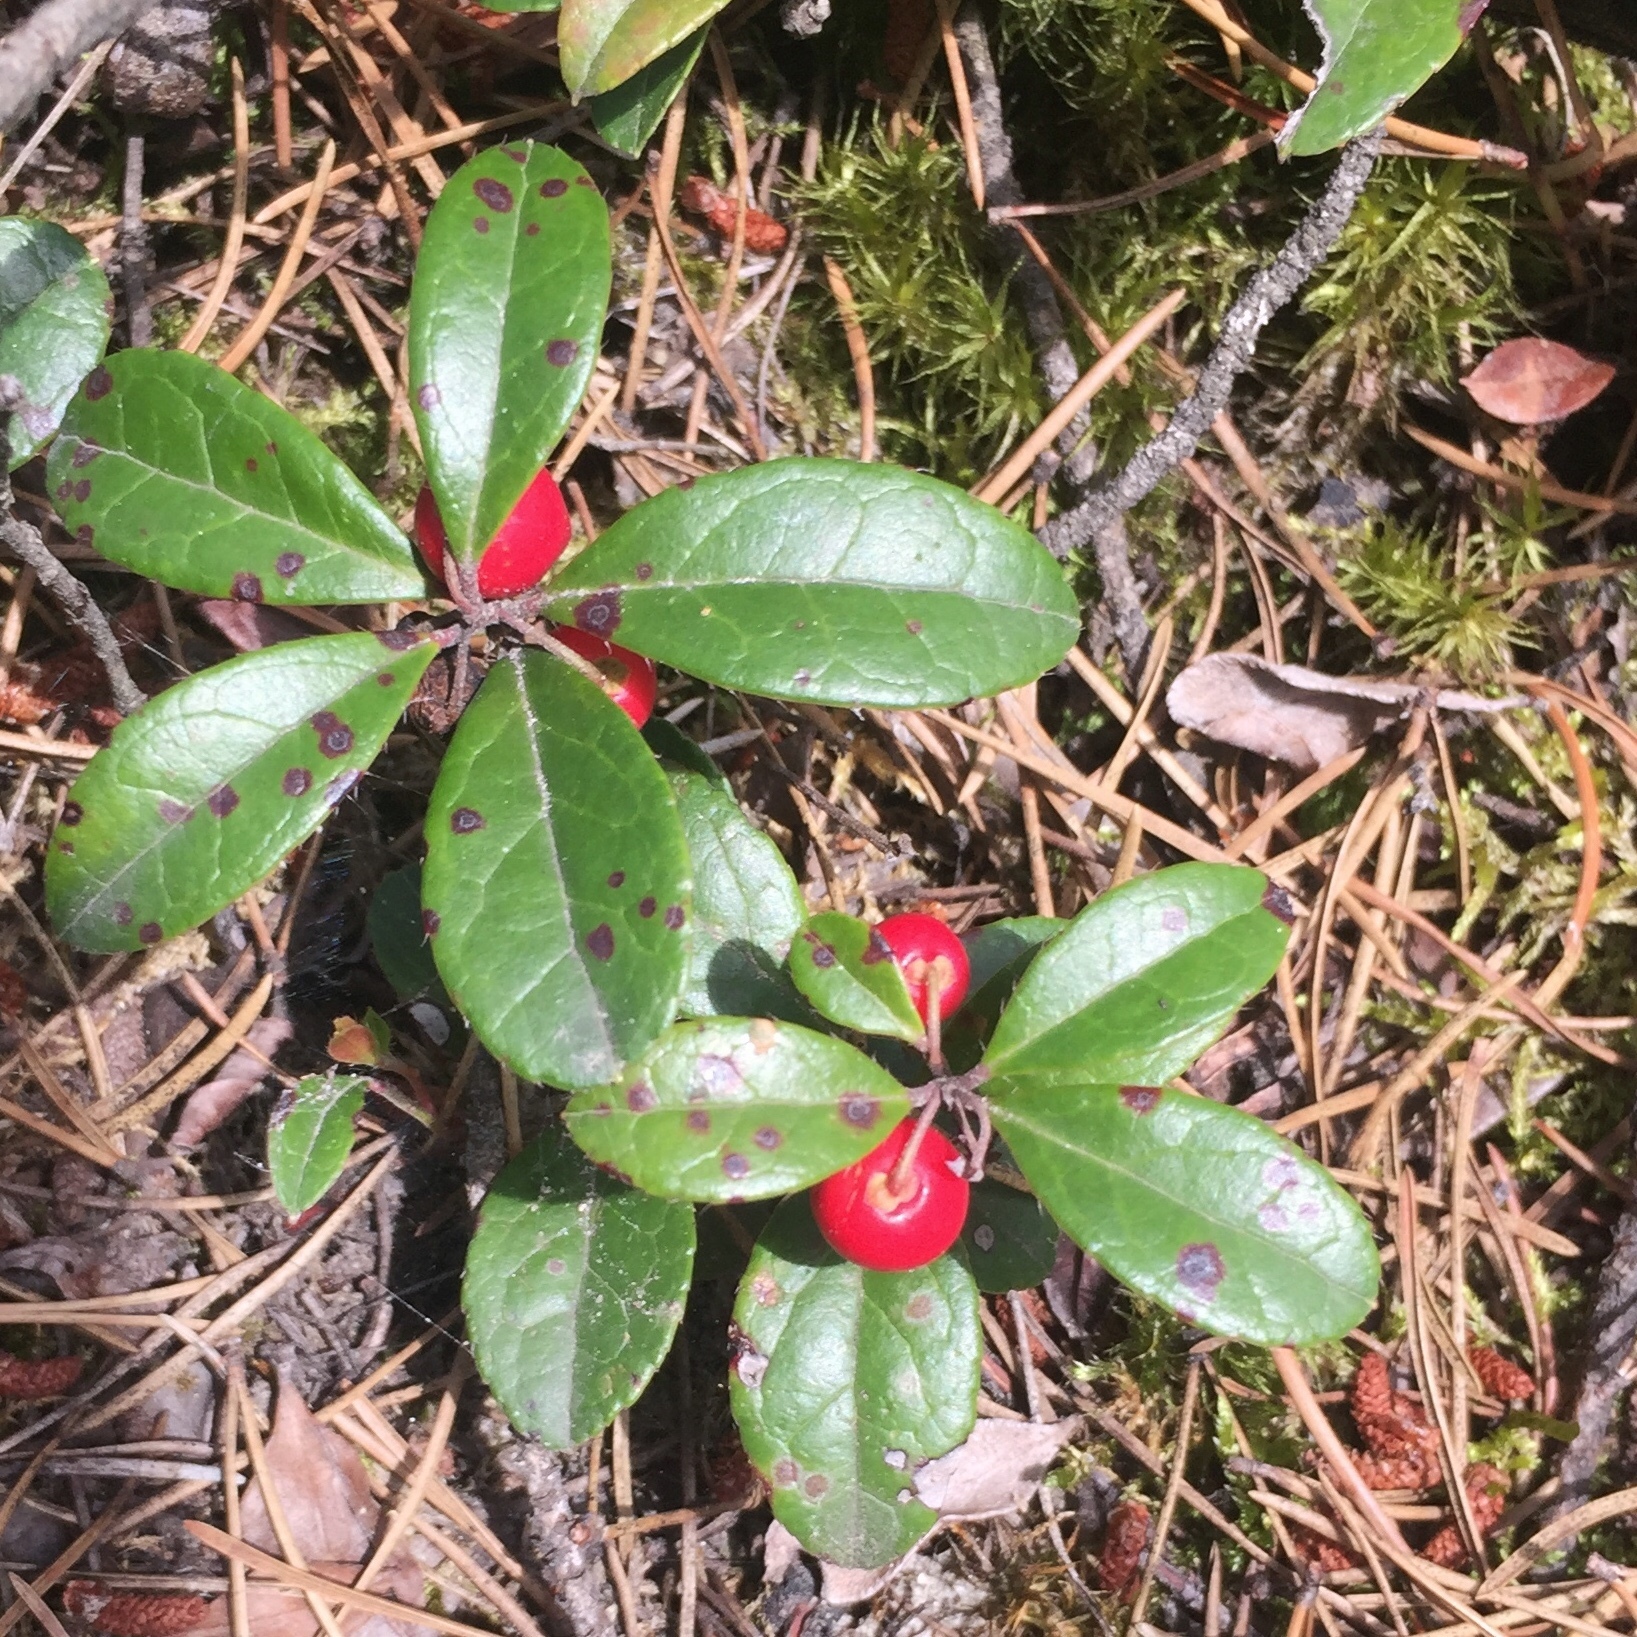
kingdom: Plantae
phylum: Tracheophyta
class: Magnoliopsida
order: Ericales
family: Ericaceae
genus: Gaultheria
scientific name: Gaultheria procumbens
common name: Checkerberry
